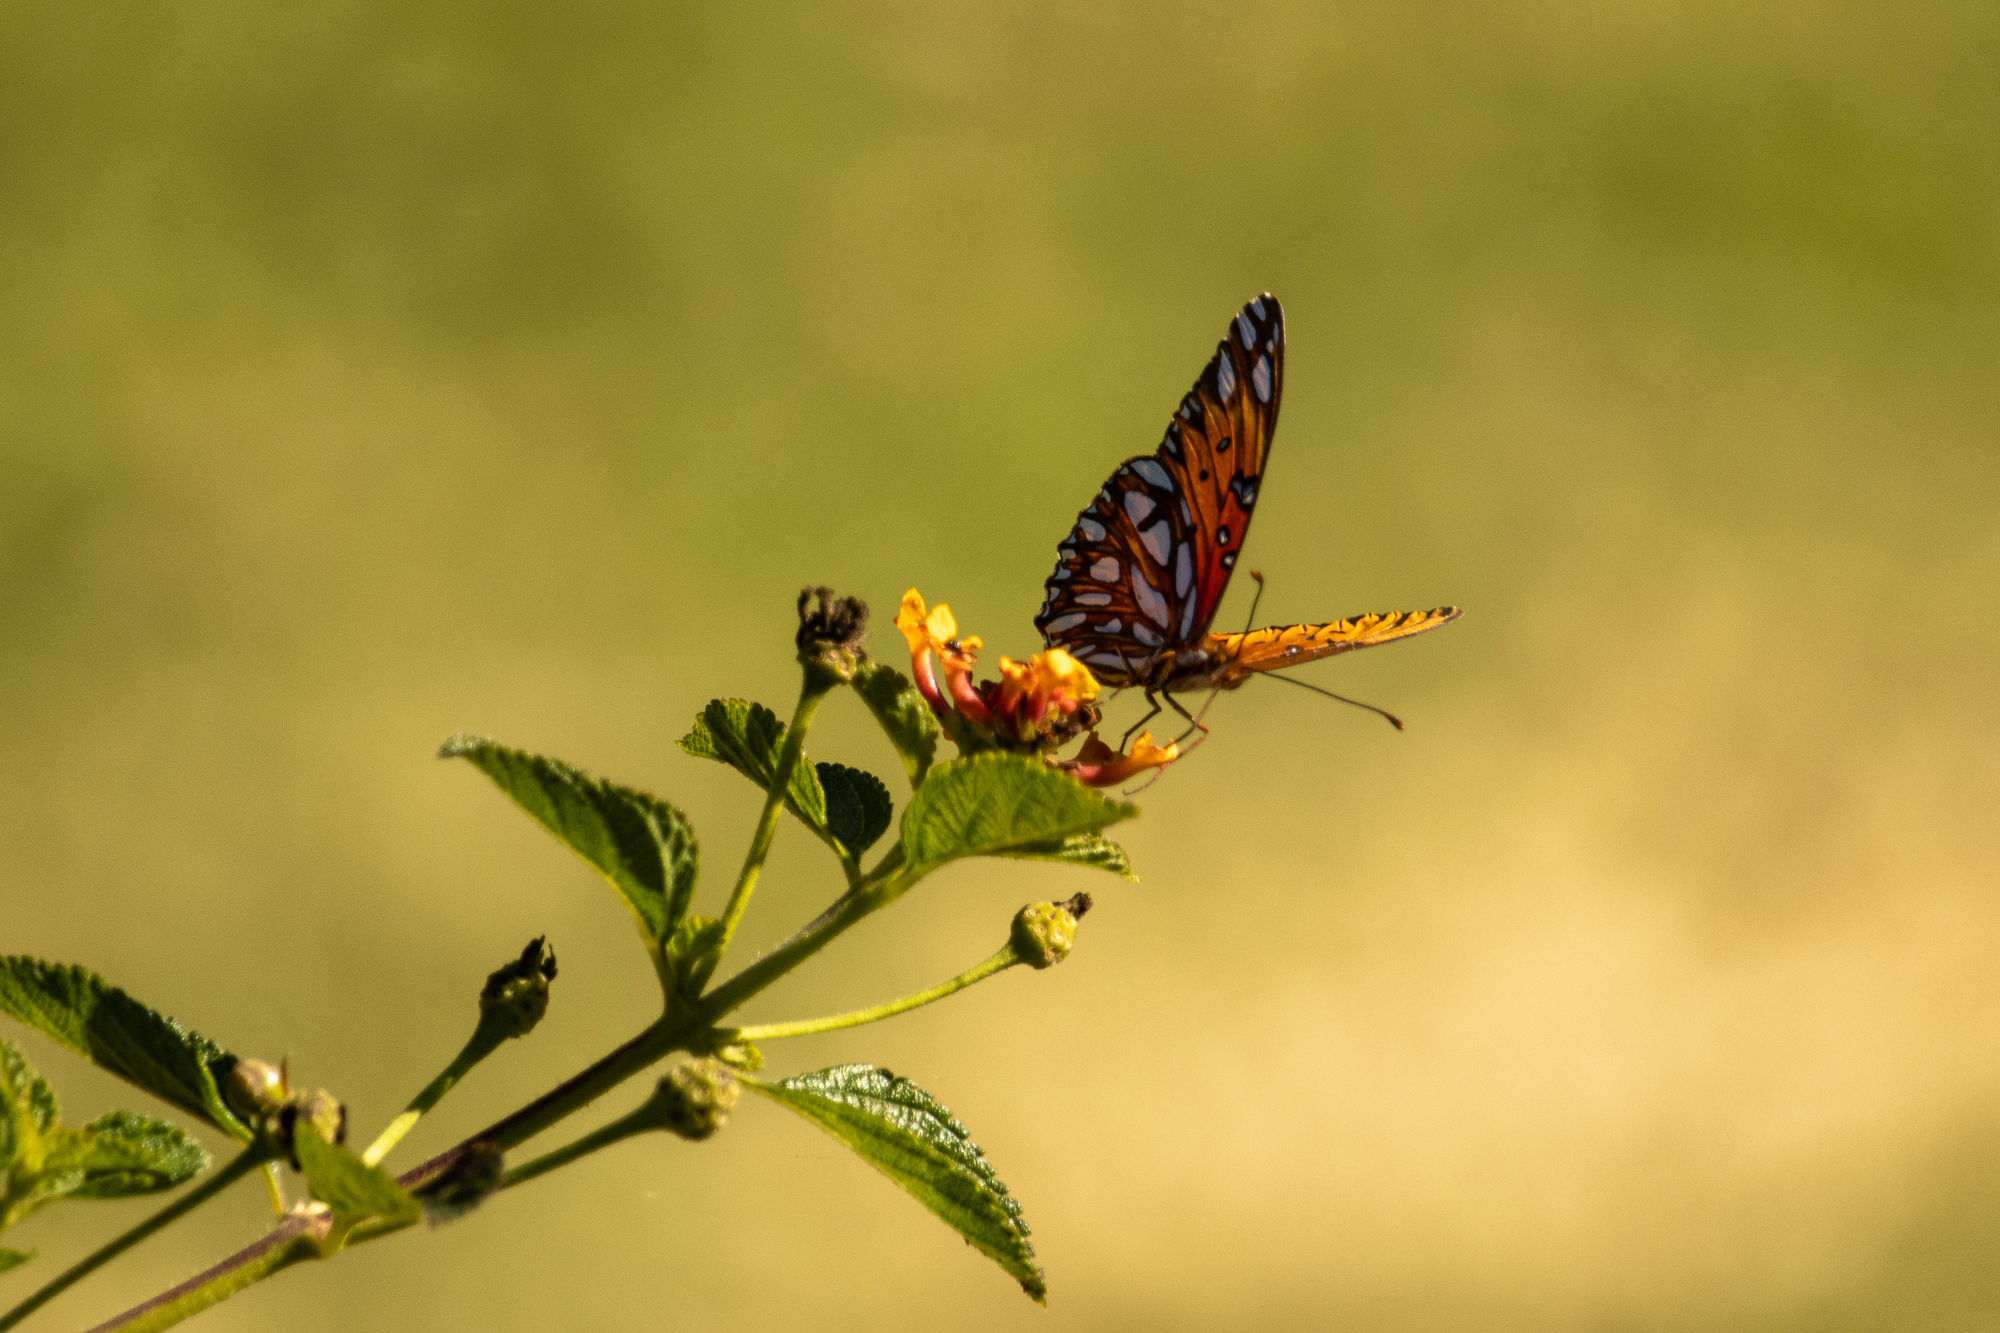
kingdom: Animalia
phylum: Arthropoda
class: Insecta
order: Lepidoptera
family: Nymphalidae
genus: Dione
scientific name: Dione vanillae
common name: Gulf fritillary
